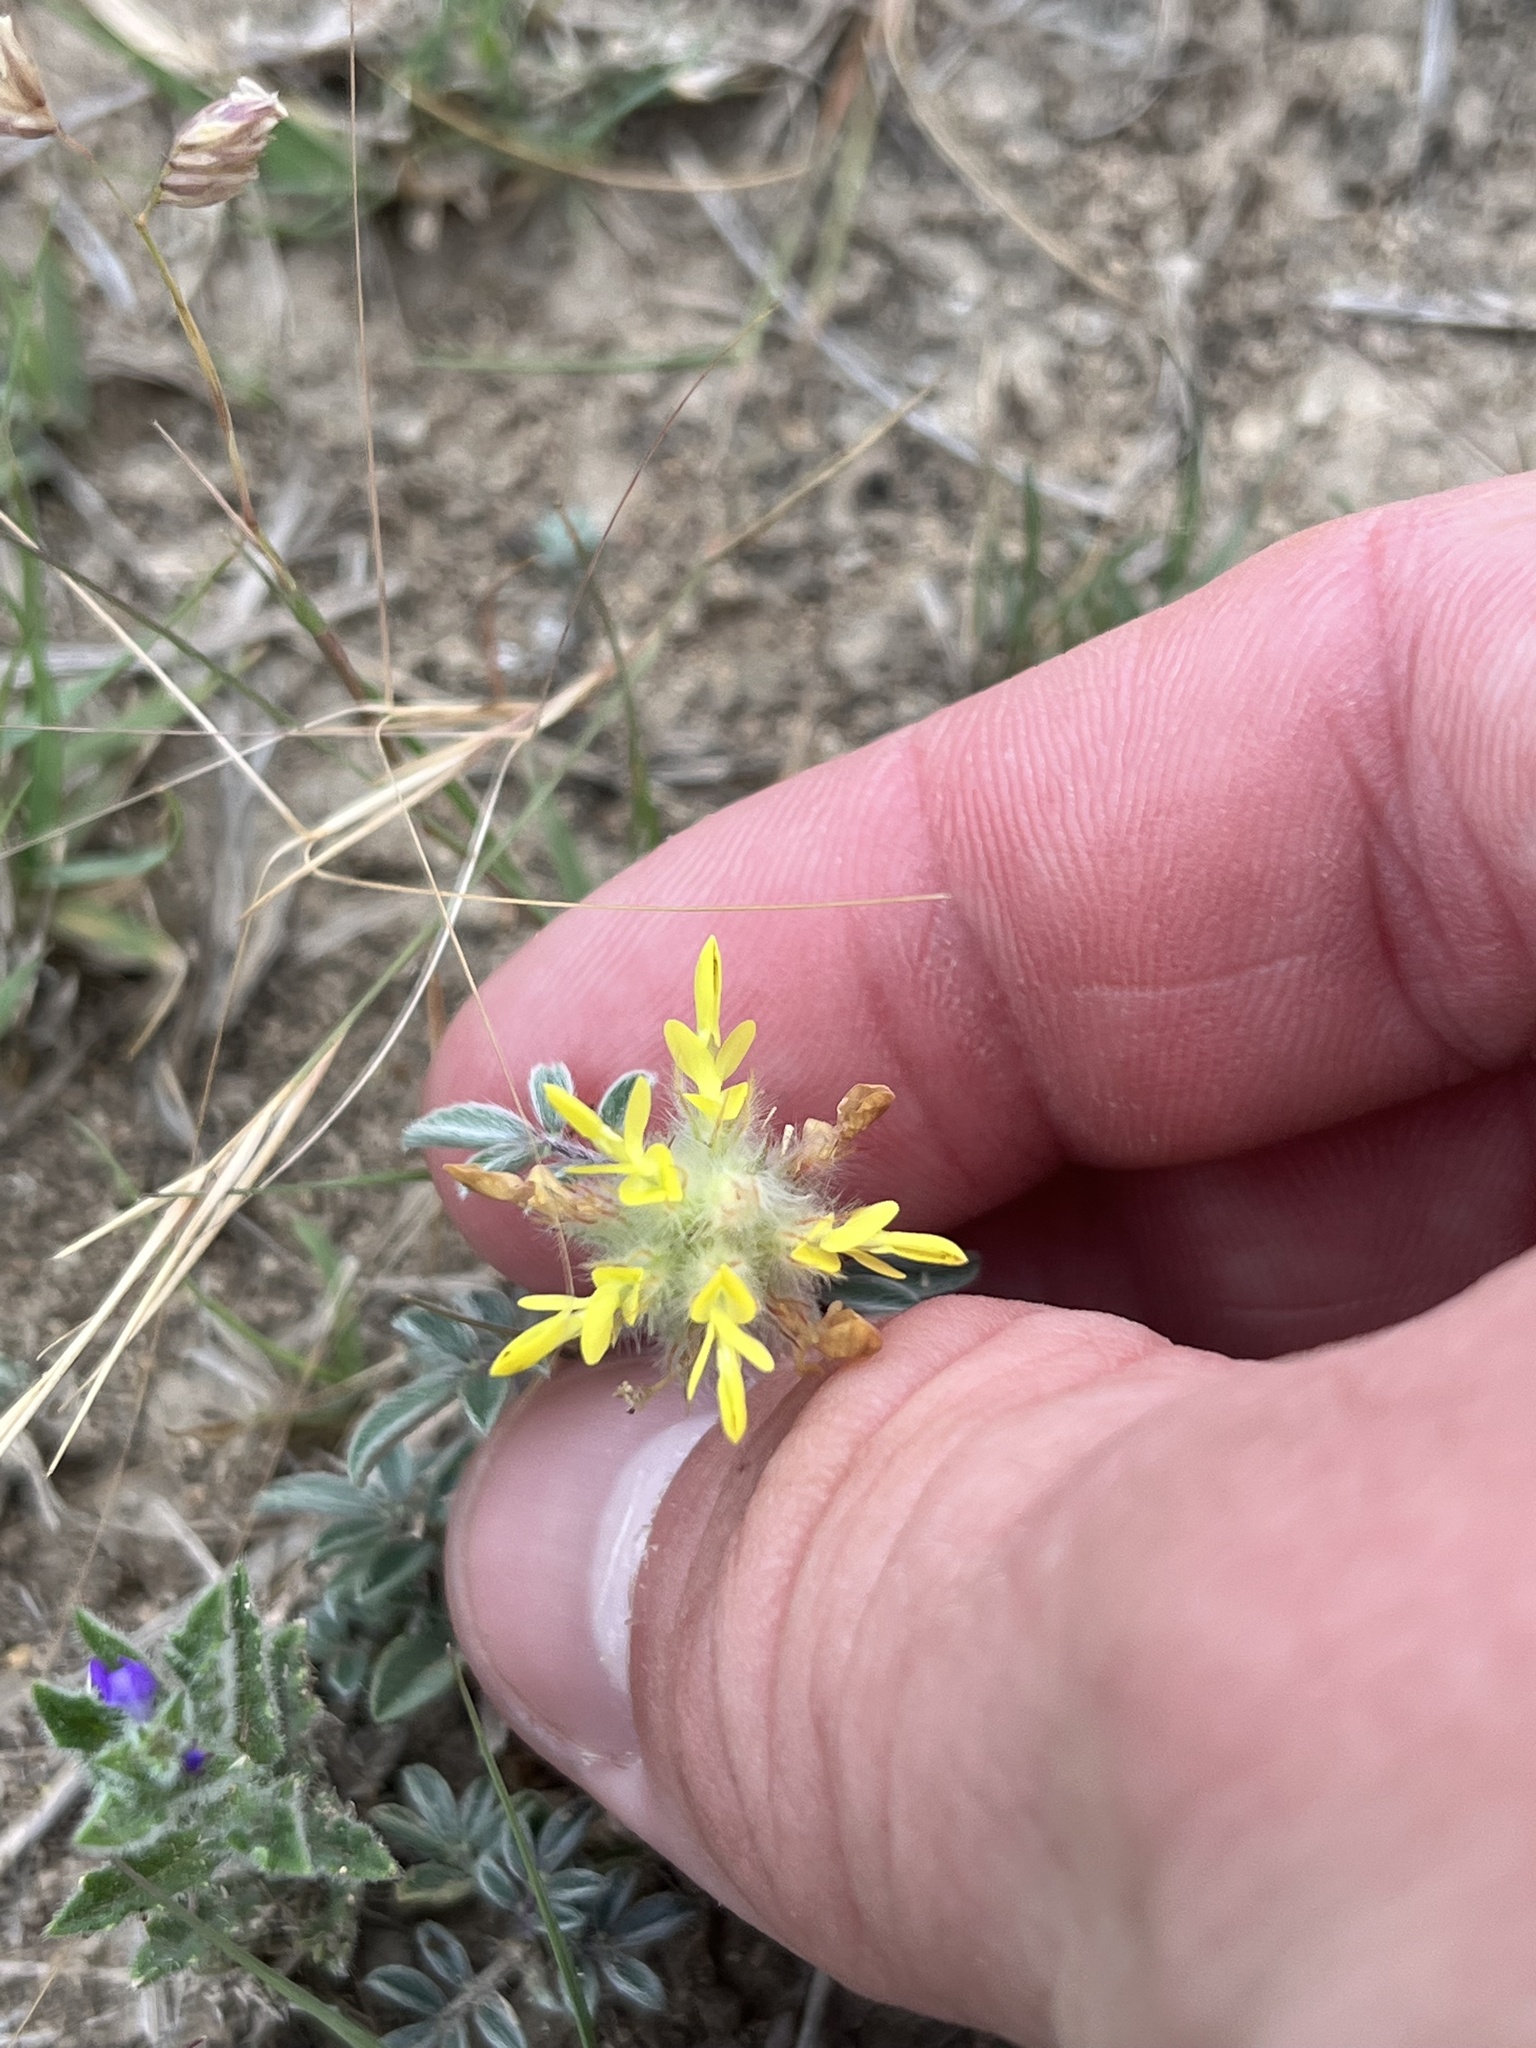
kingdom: Plantae
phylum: Tracheophyta
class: Magnoliopsida
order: Fabales
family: Fabaceae
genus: Dalea
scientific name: Dalea nana
